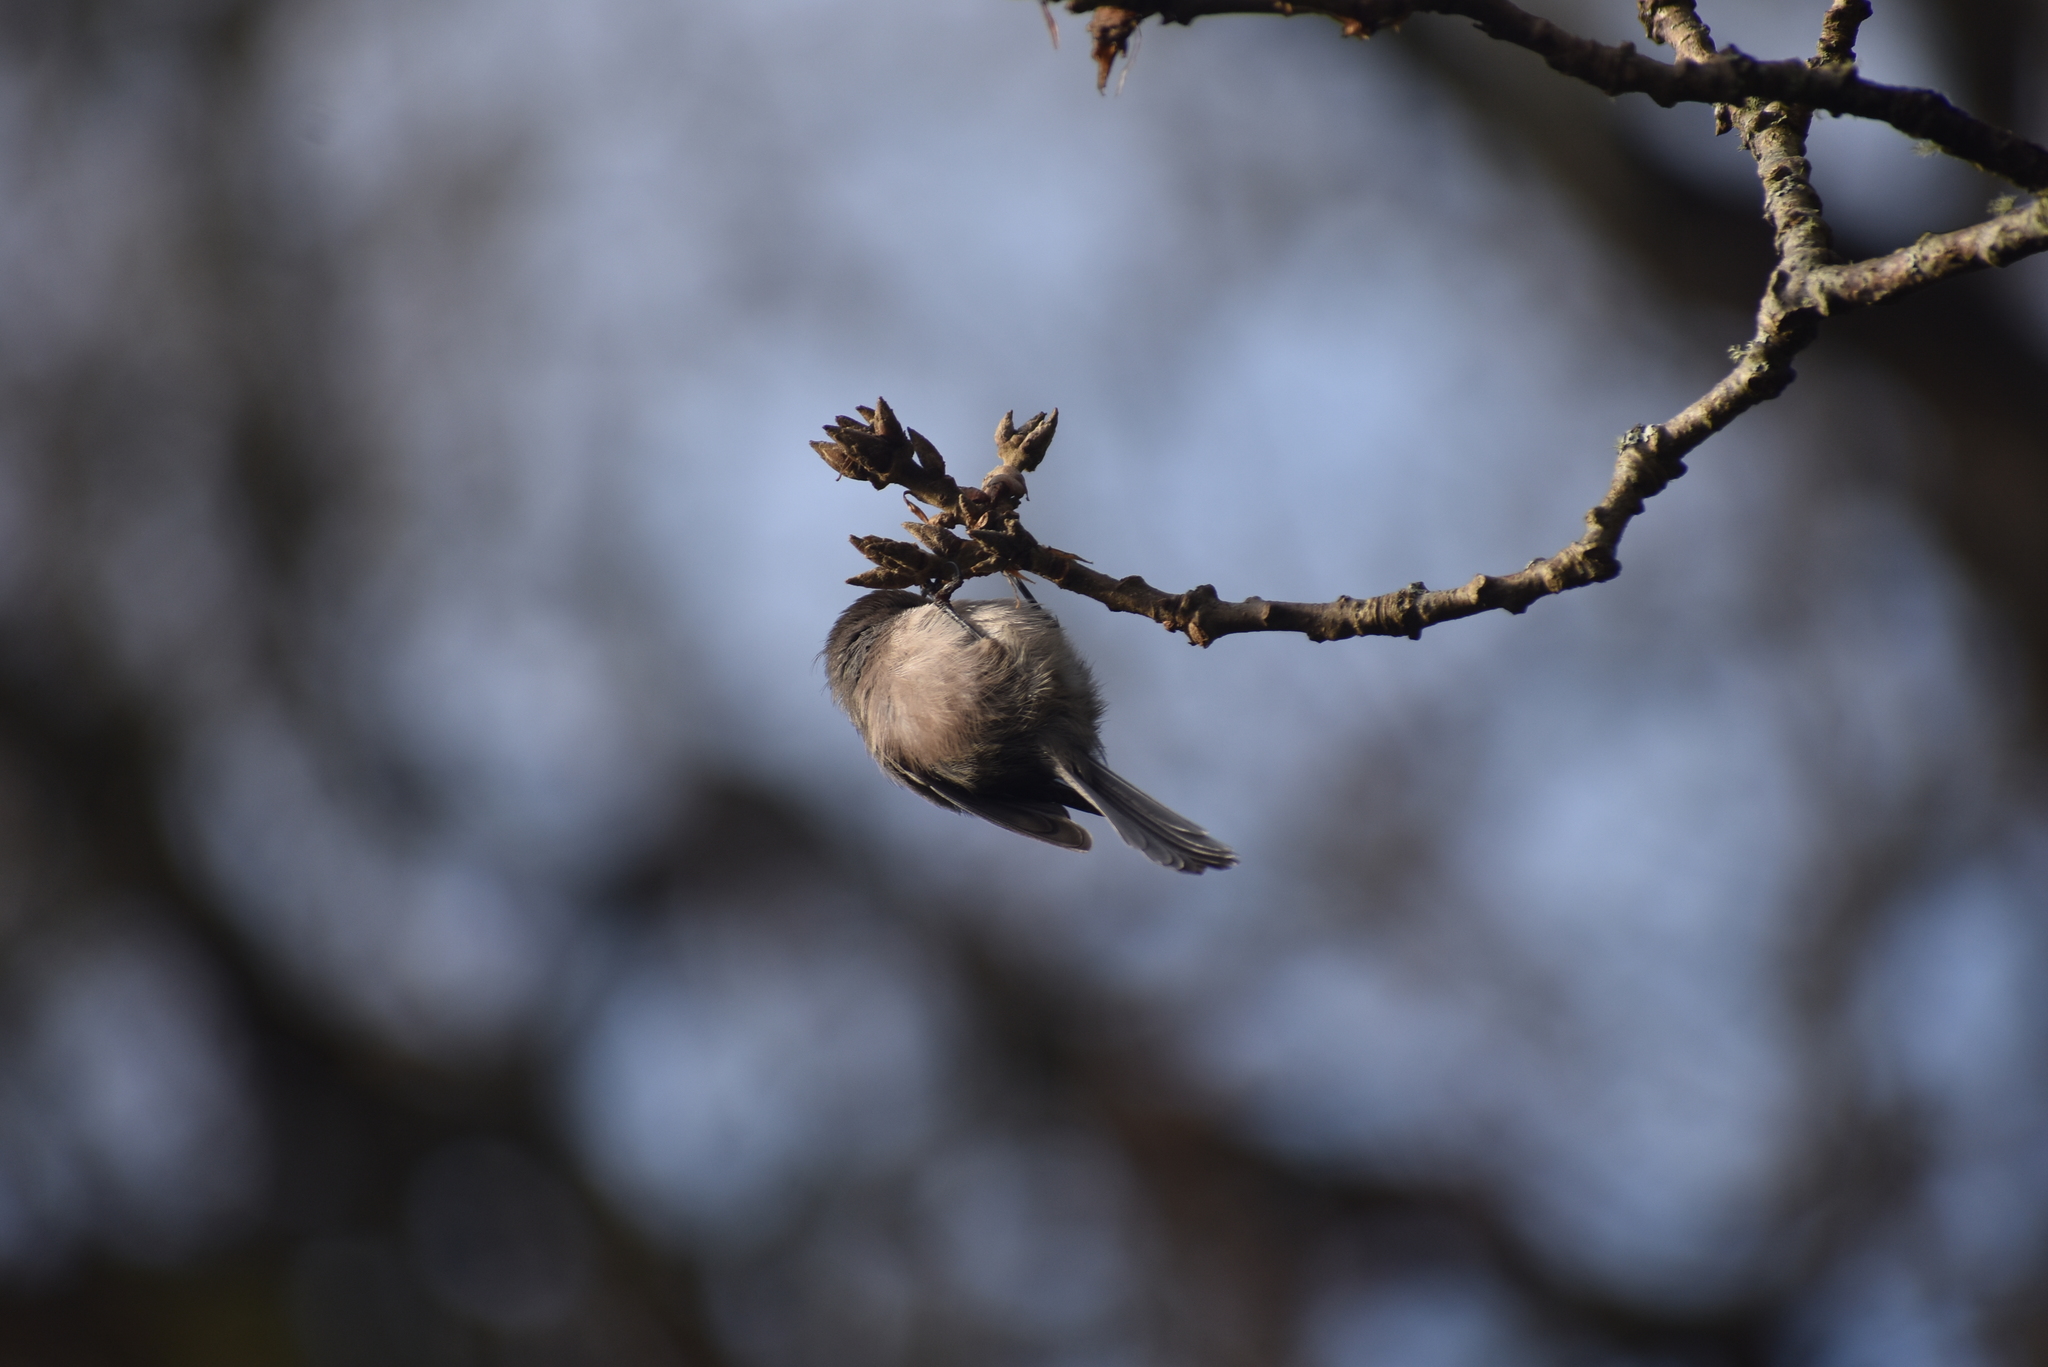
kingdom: Animalia
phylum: Chordata
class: Aves
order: Passeriformes
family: Aegithalidae
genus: Psaltriparus
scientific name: Psaltriparus minimus
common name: American bushtit
